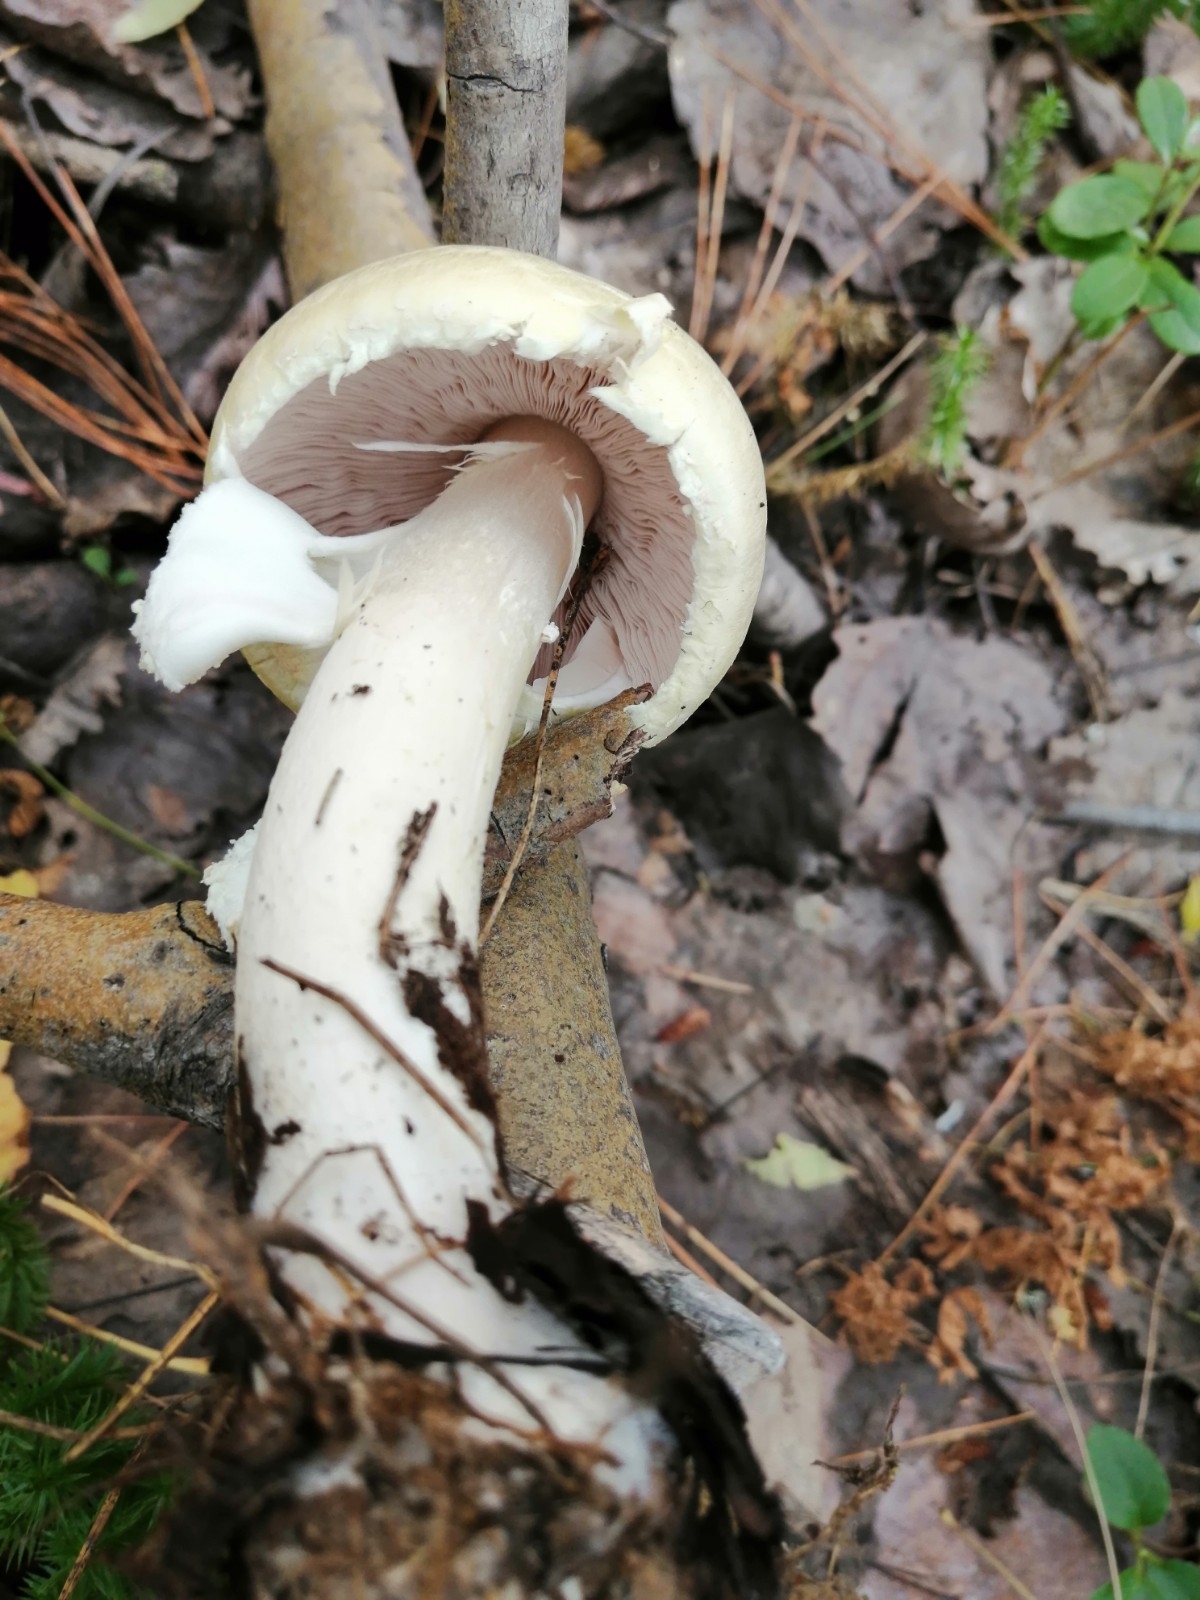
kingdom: Fungi
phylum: Basidiomycota
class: Agaricomycetes
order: Agaricales
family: Agaricaceae
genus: Agaricus
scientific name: Agaricus sylvicola
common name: Wood mushroom
